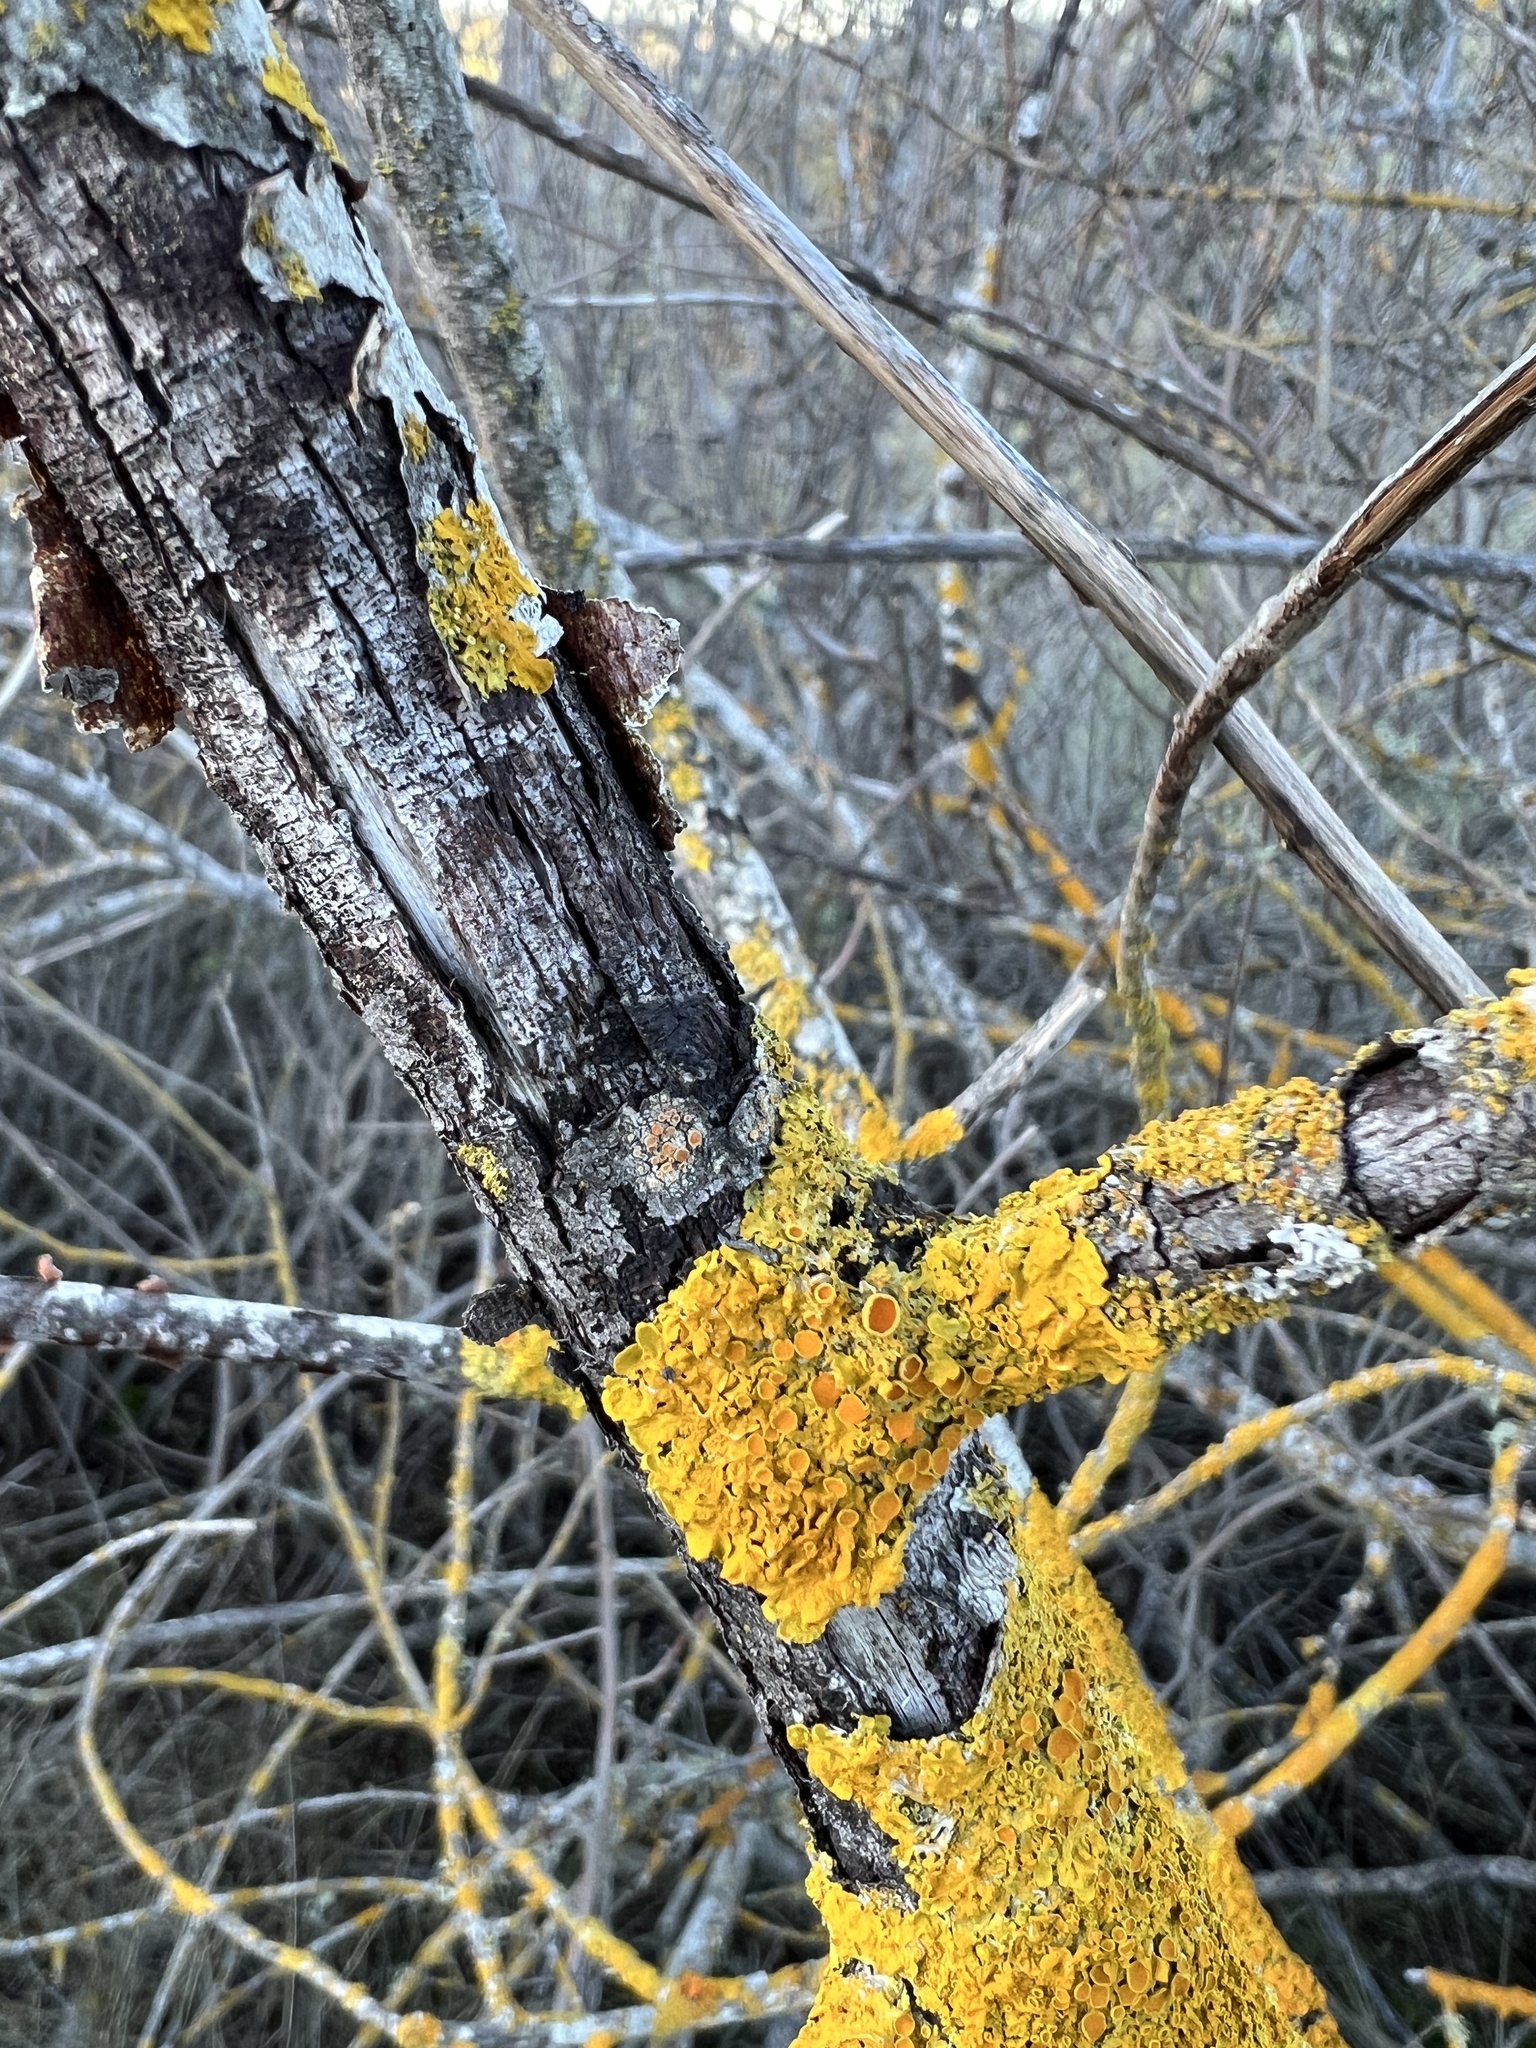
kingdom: Fungi
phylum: Ascomycota
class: Lecanoromycetes
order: Teloschistales
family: Teloschistaceae
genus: Xanthoria
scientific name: Xanthoria parietina
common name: Common orange lichen
